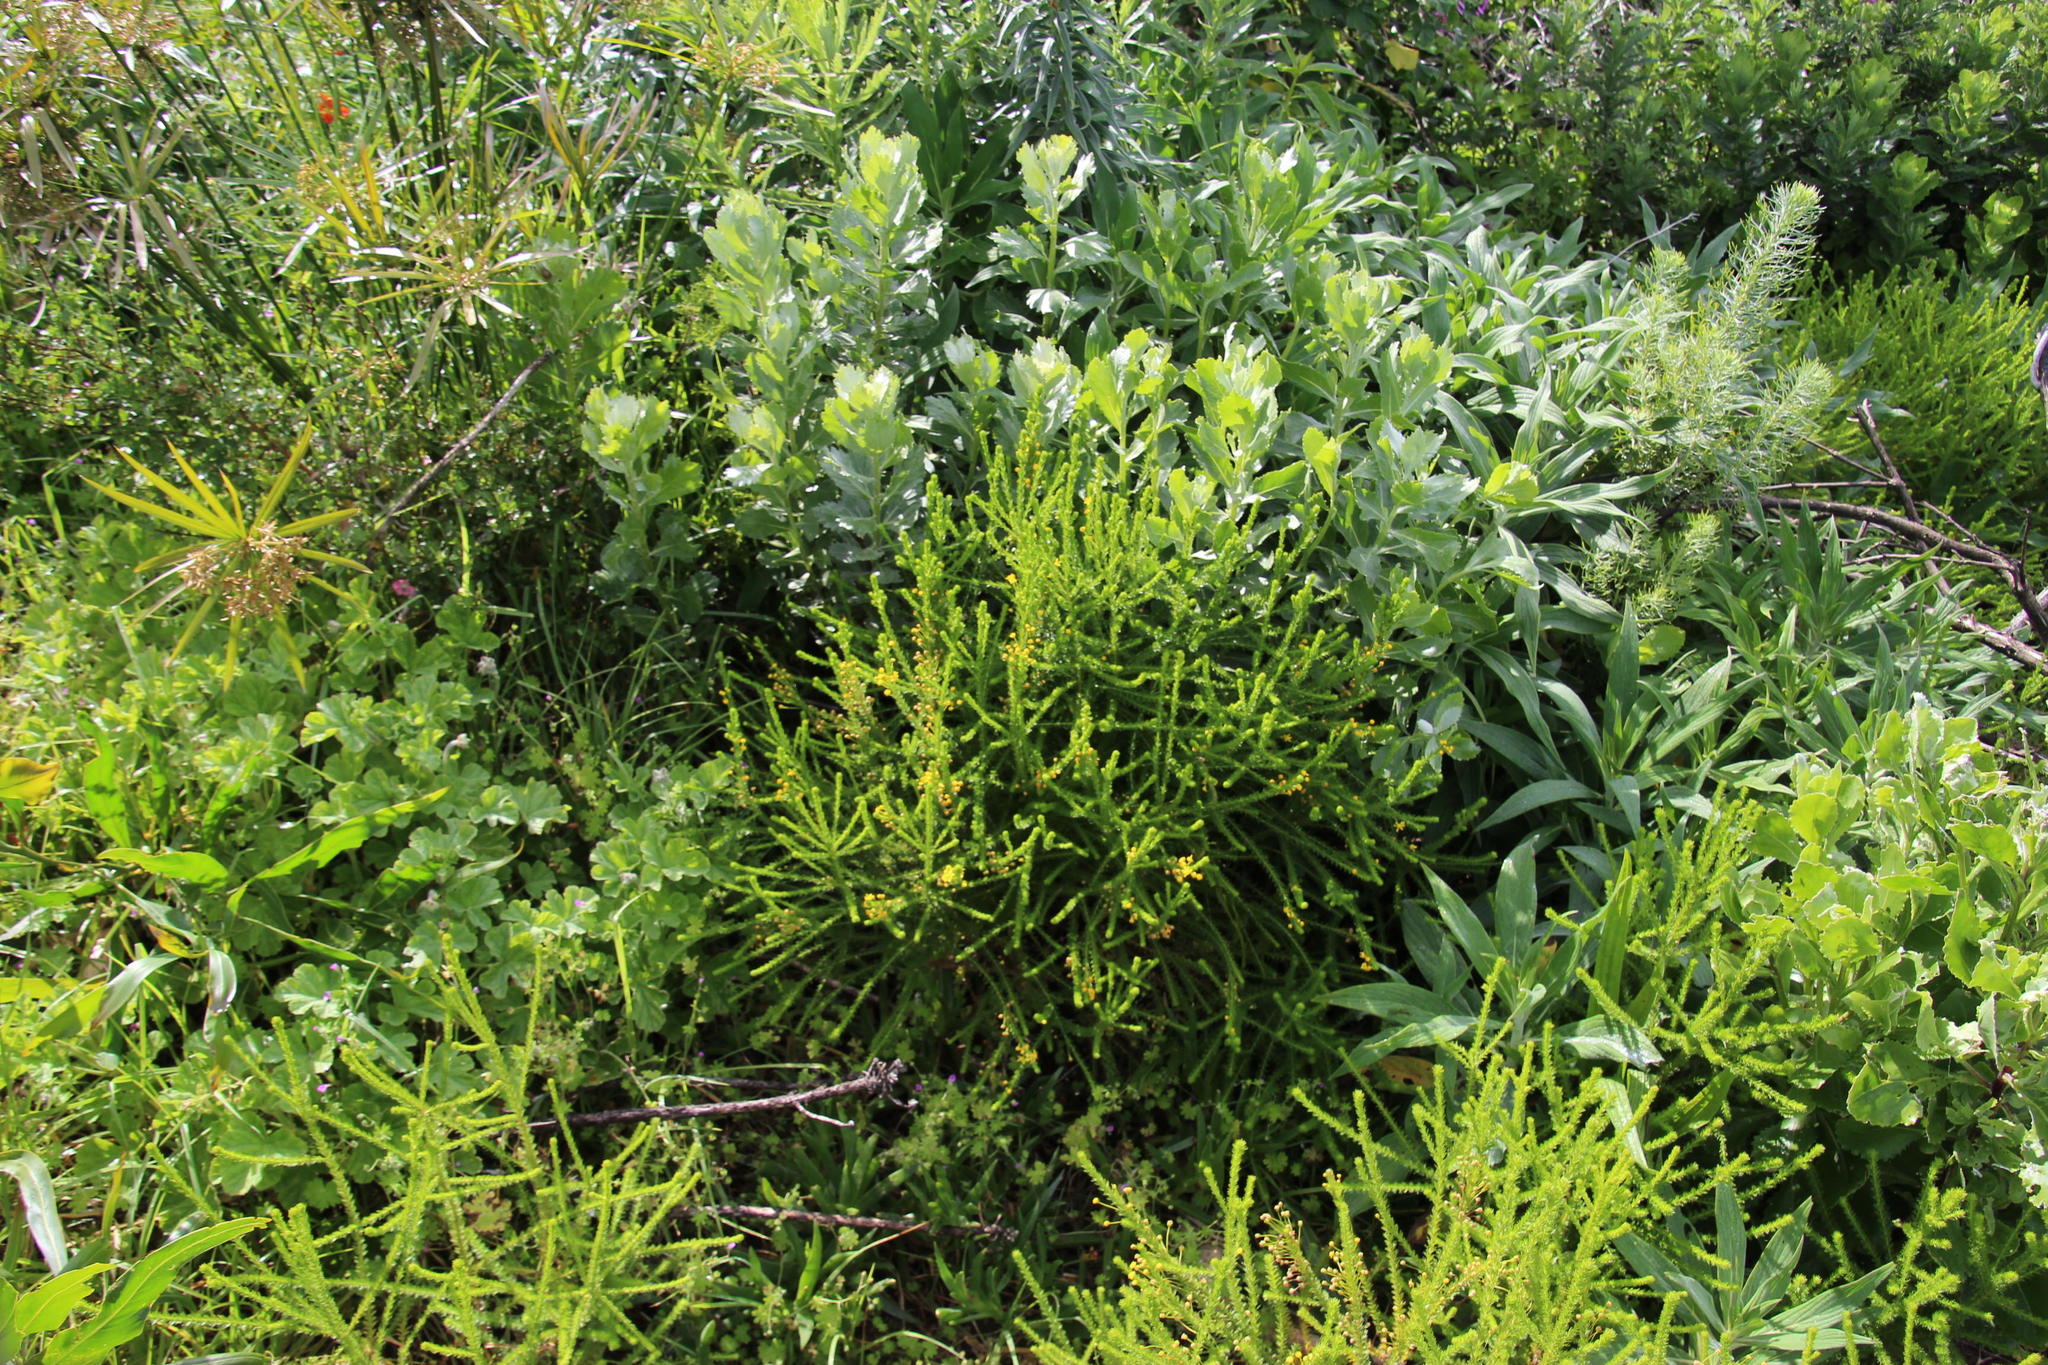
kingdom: Plantae
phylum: Tracheophyta
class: Magnoliopsida
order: Asterales
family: Asteraceae
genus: Euryops
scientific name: Euryops virgineus
